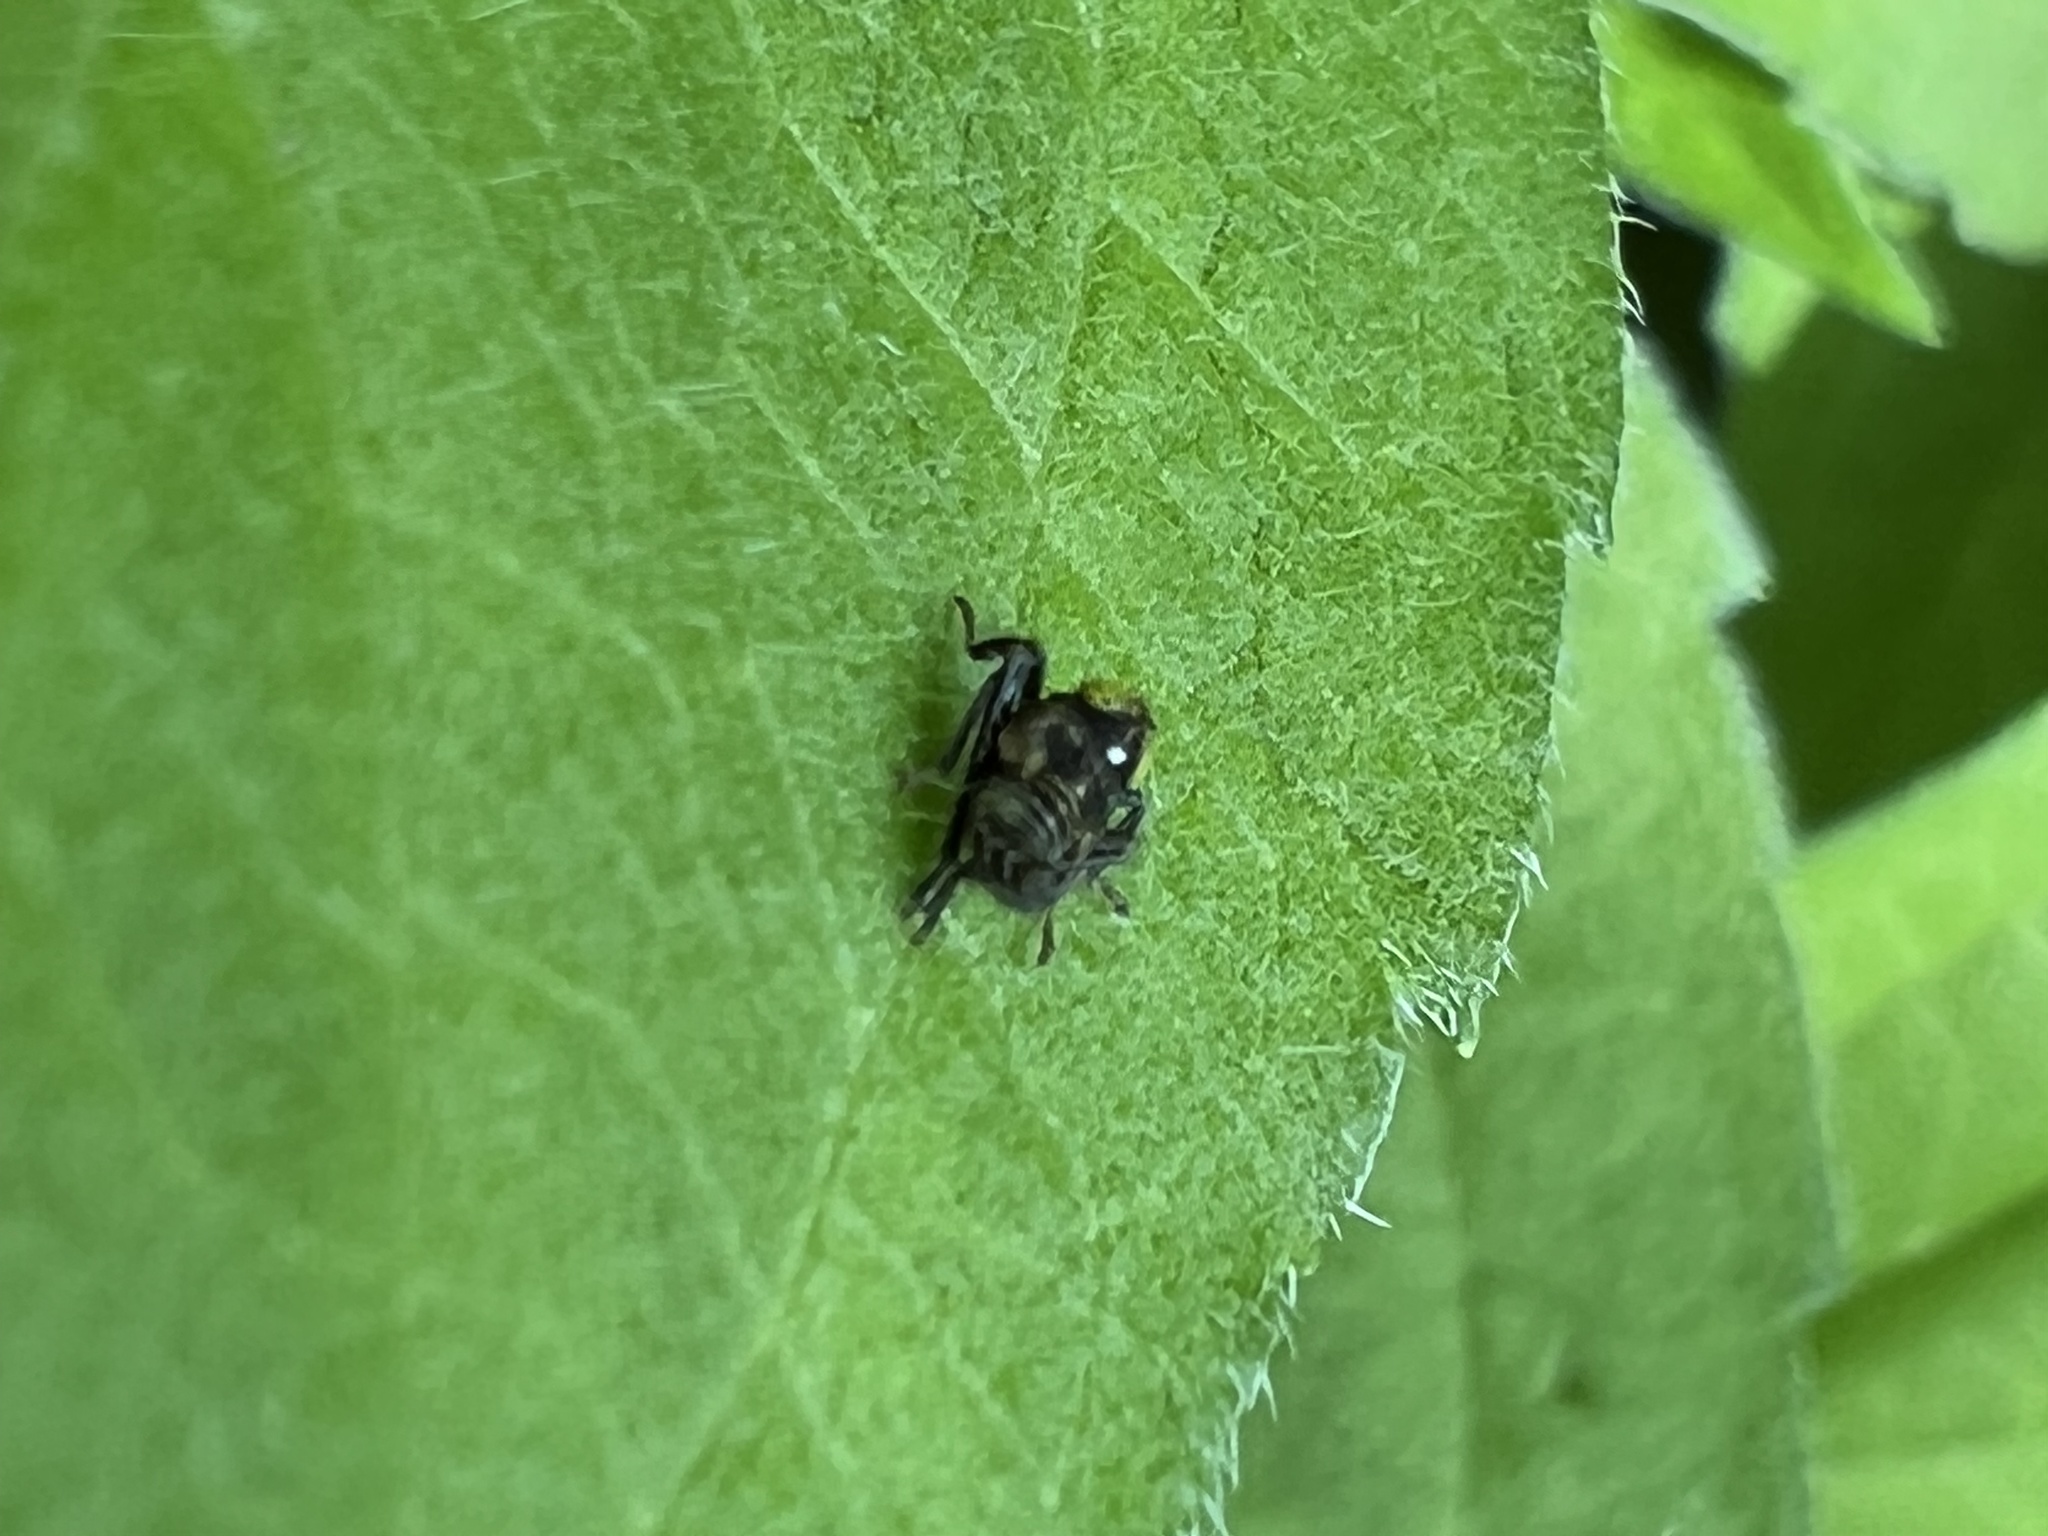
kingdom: Animalia
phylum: Arthropoda
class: Insecta
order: Hemiptera
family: Cicadellidae
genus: Jikradia
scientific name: Jikradia olitoria
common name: Coppery leafhopper
